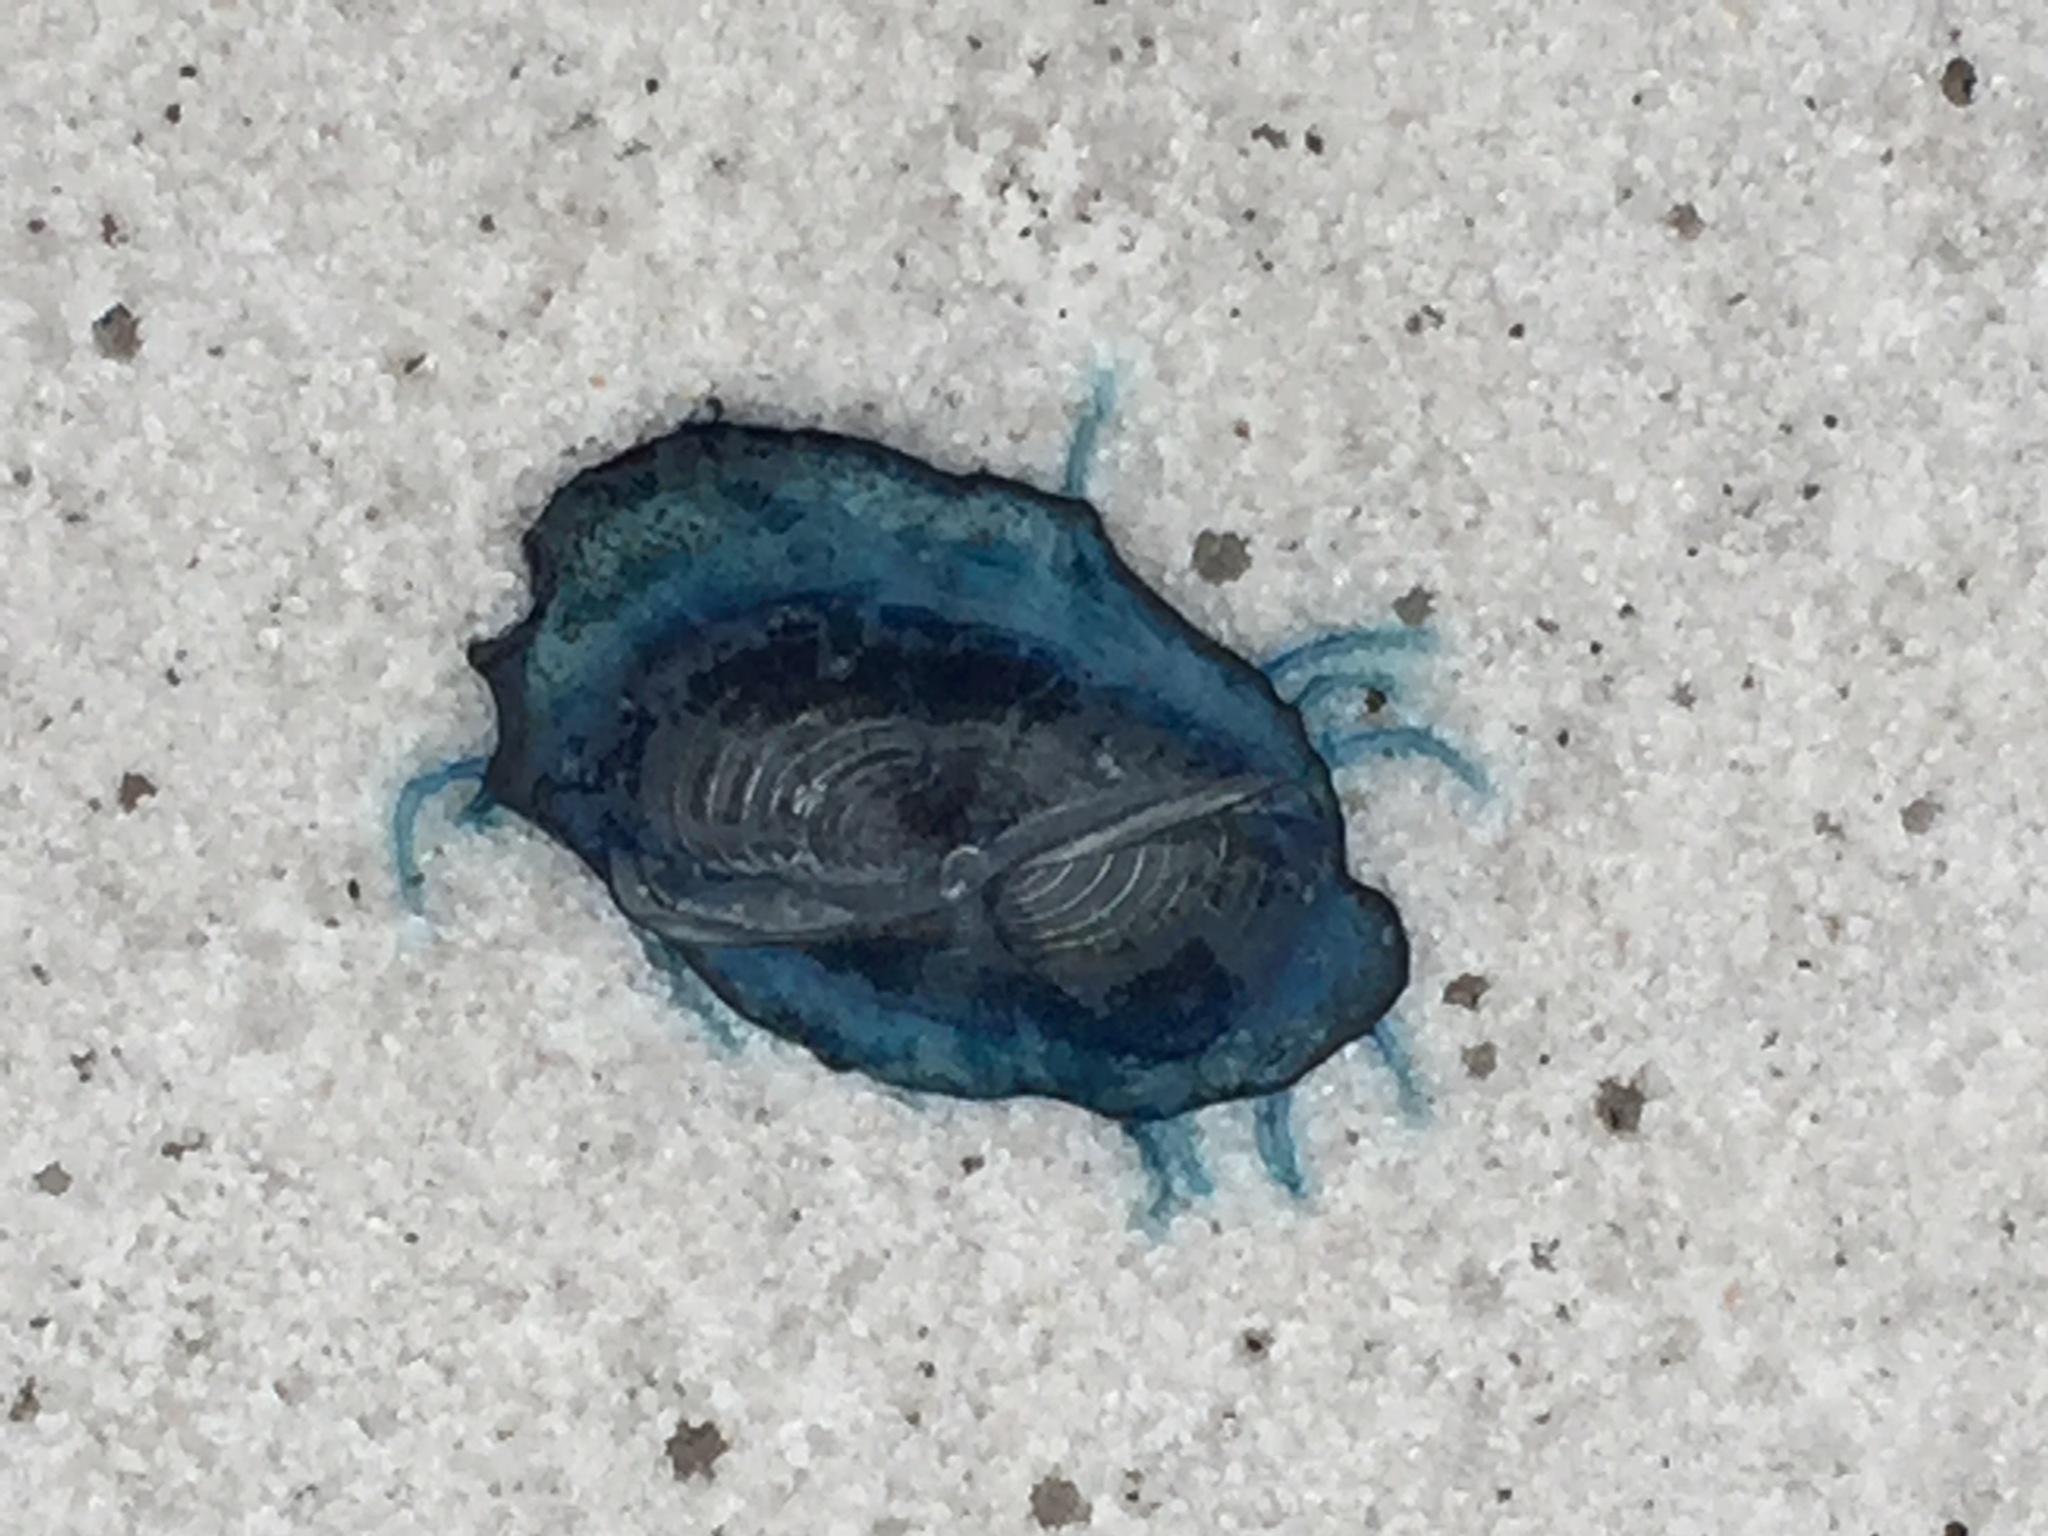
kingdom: Animalia
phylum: Cnidaria
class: Hydrozoa
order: Anthoathecata
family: Porpitidae
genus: Velella
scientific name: Velella velella
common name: By-the-wind-sailor
